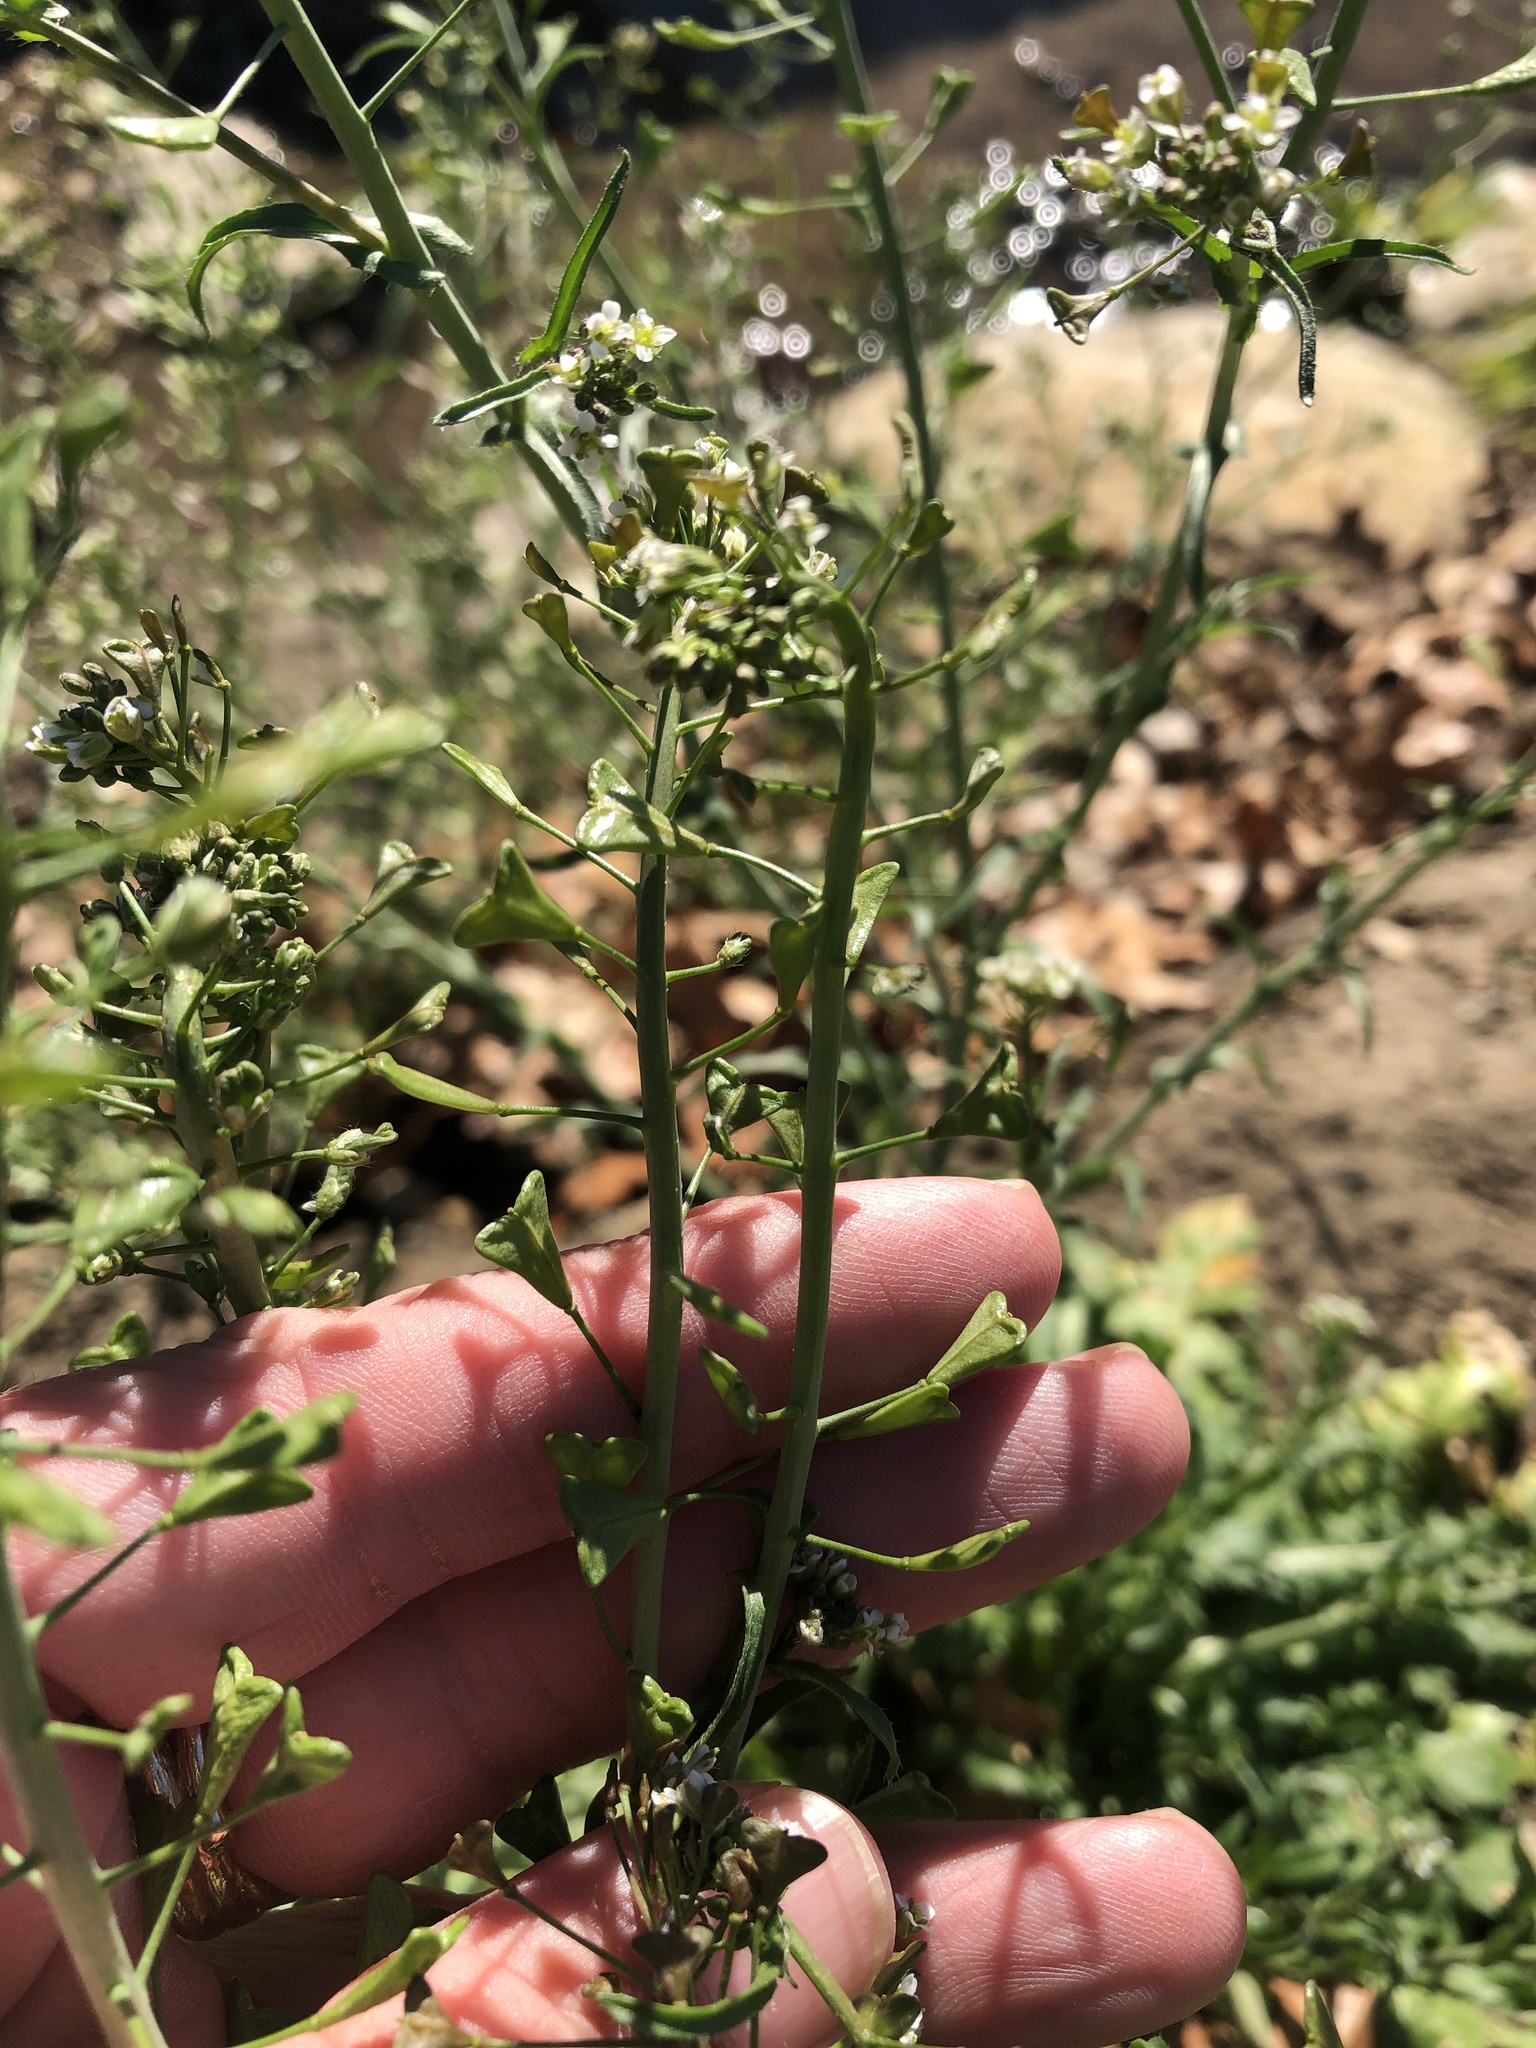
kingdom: Plantae
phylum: Tracheophyta
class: Magnoliopsida
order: Brassicales
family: Brassicaceae
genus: Capsella
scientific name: Capsella bursa-pastoris
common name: Shepherd's purse
